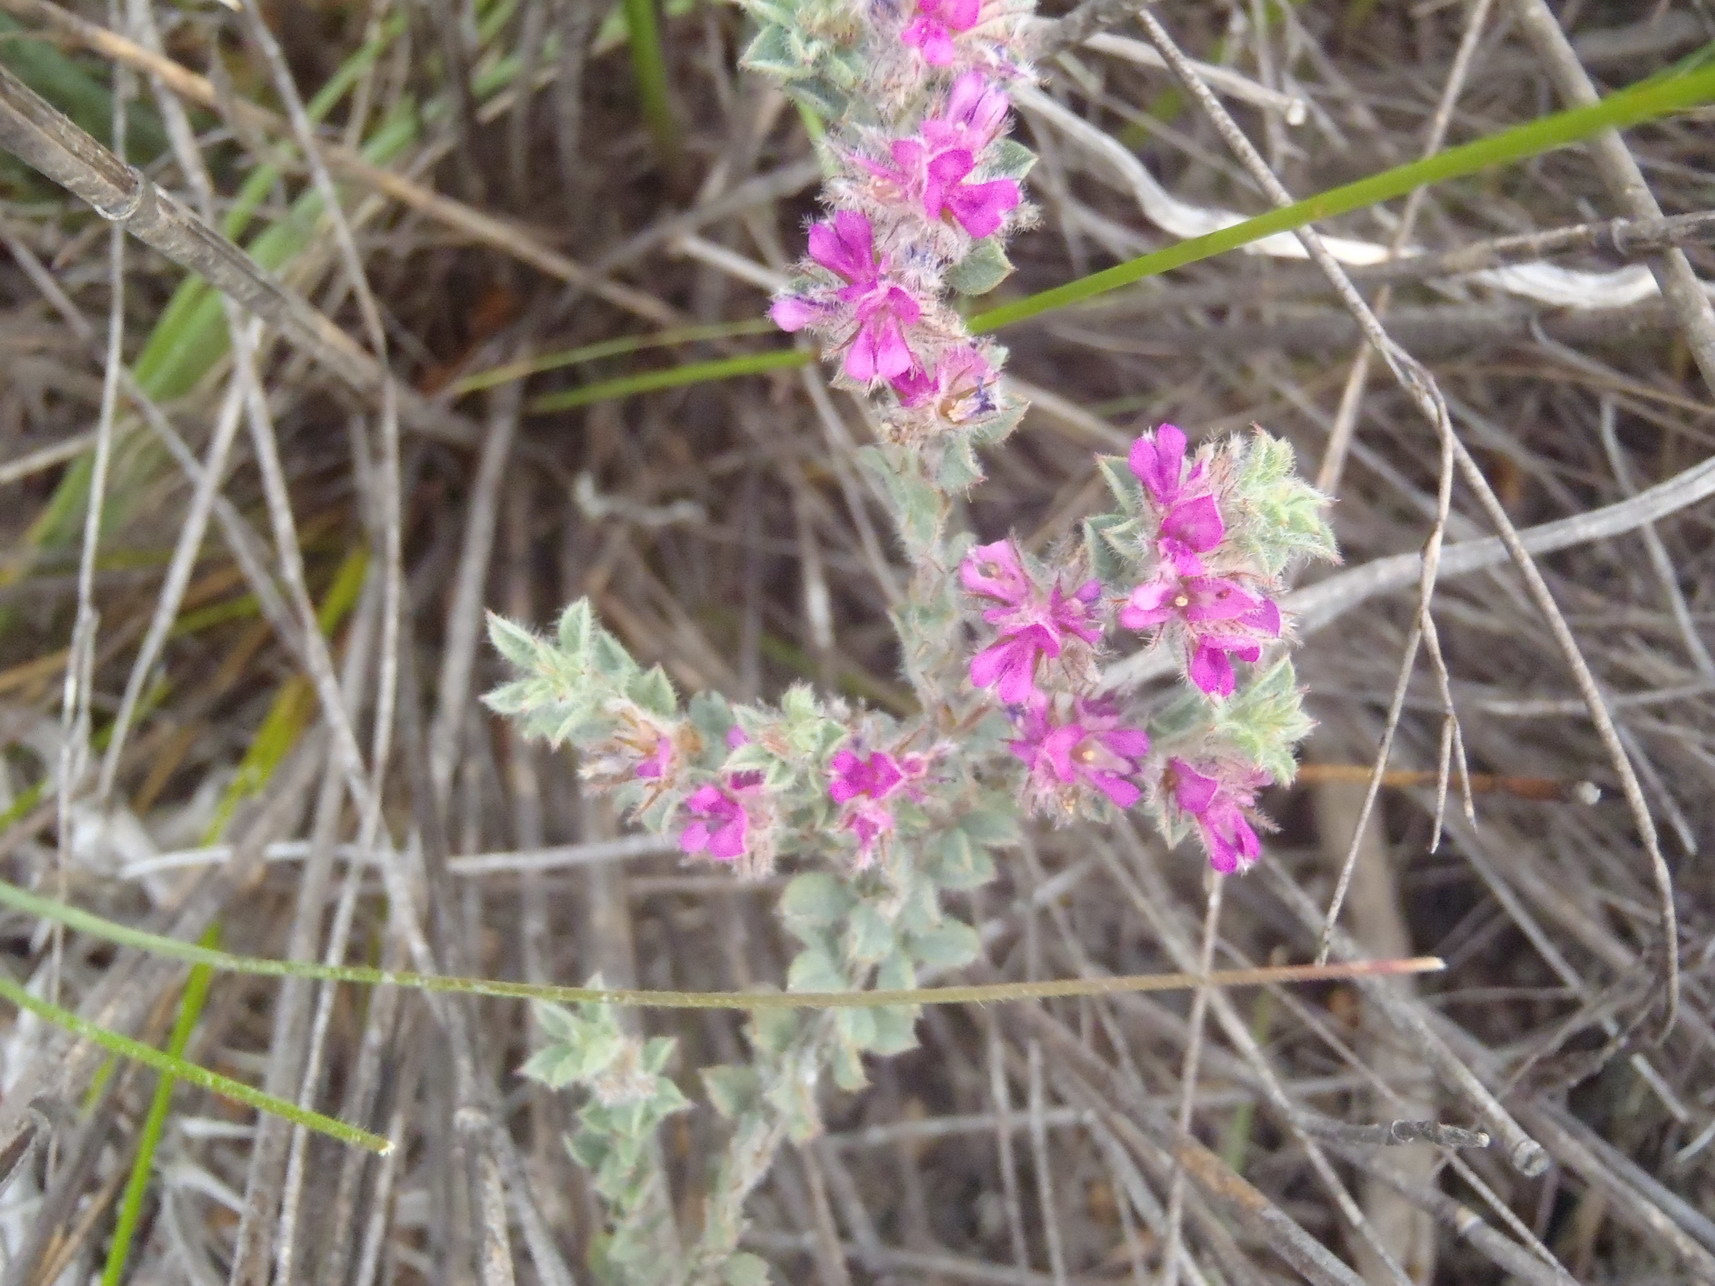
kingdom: Plantae
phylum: Tracheophyta
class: Magnoliopsida
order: Fabales
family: Fabaceae
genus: Indigofera
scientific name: Indigofera glomerata
